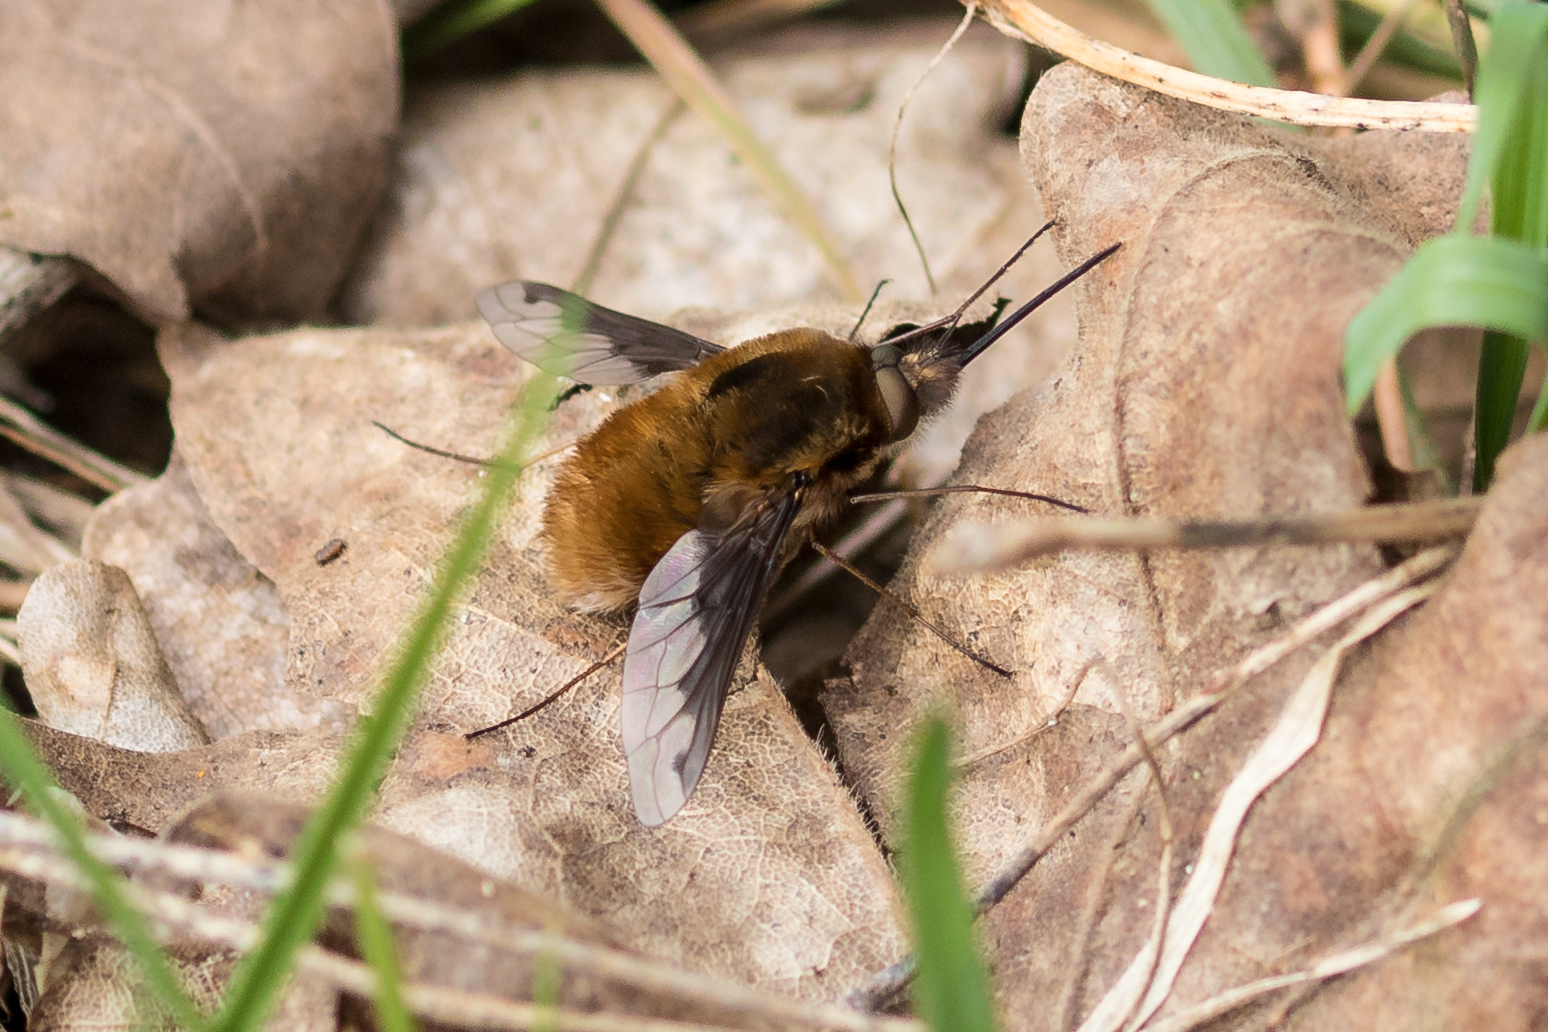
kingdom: Animalia
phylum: Arthropoda
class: Insecta
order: Diptera
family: Bombyliidae
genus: Bombylius
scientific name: Bombylius major
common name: Bee fly
